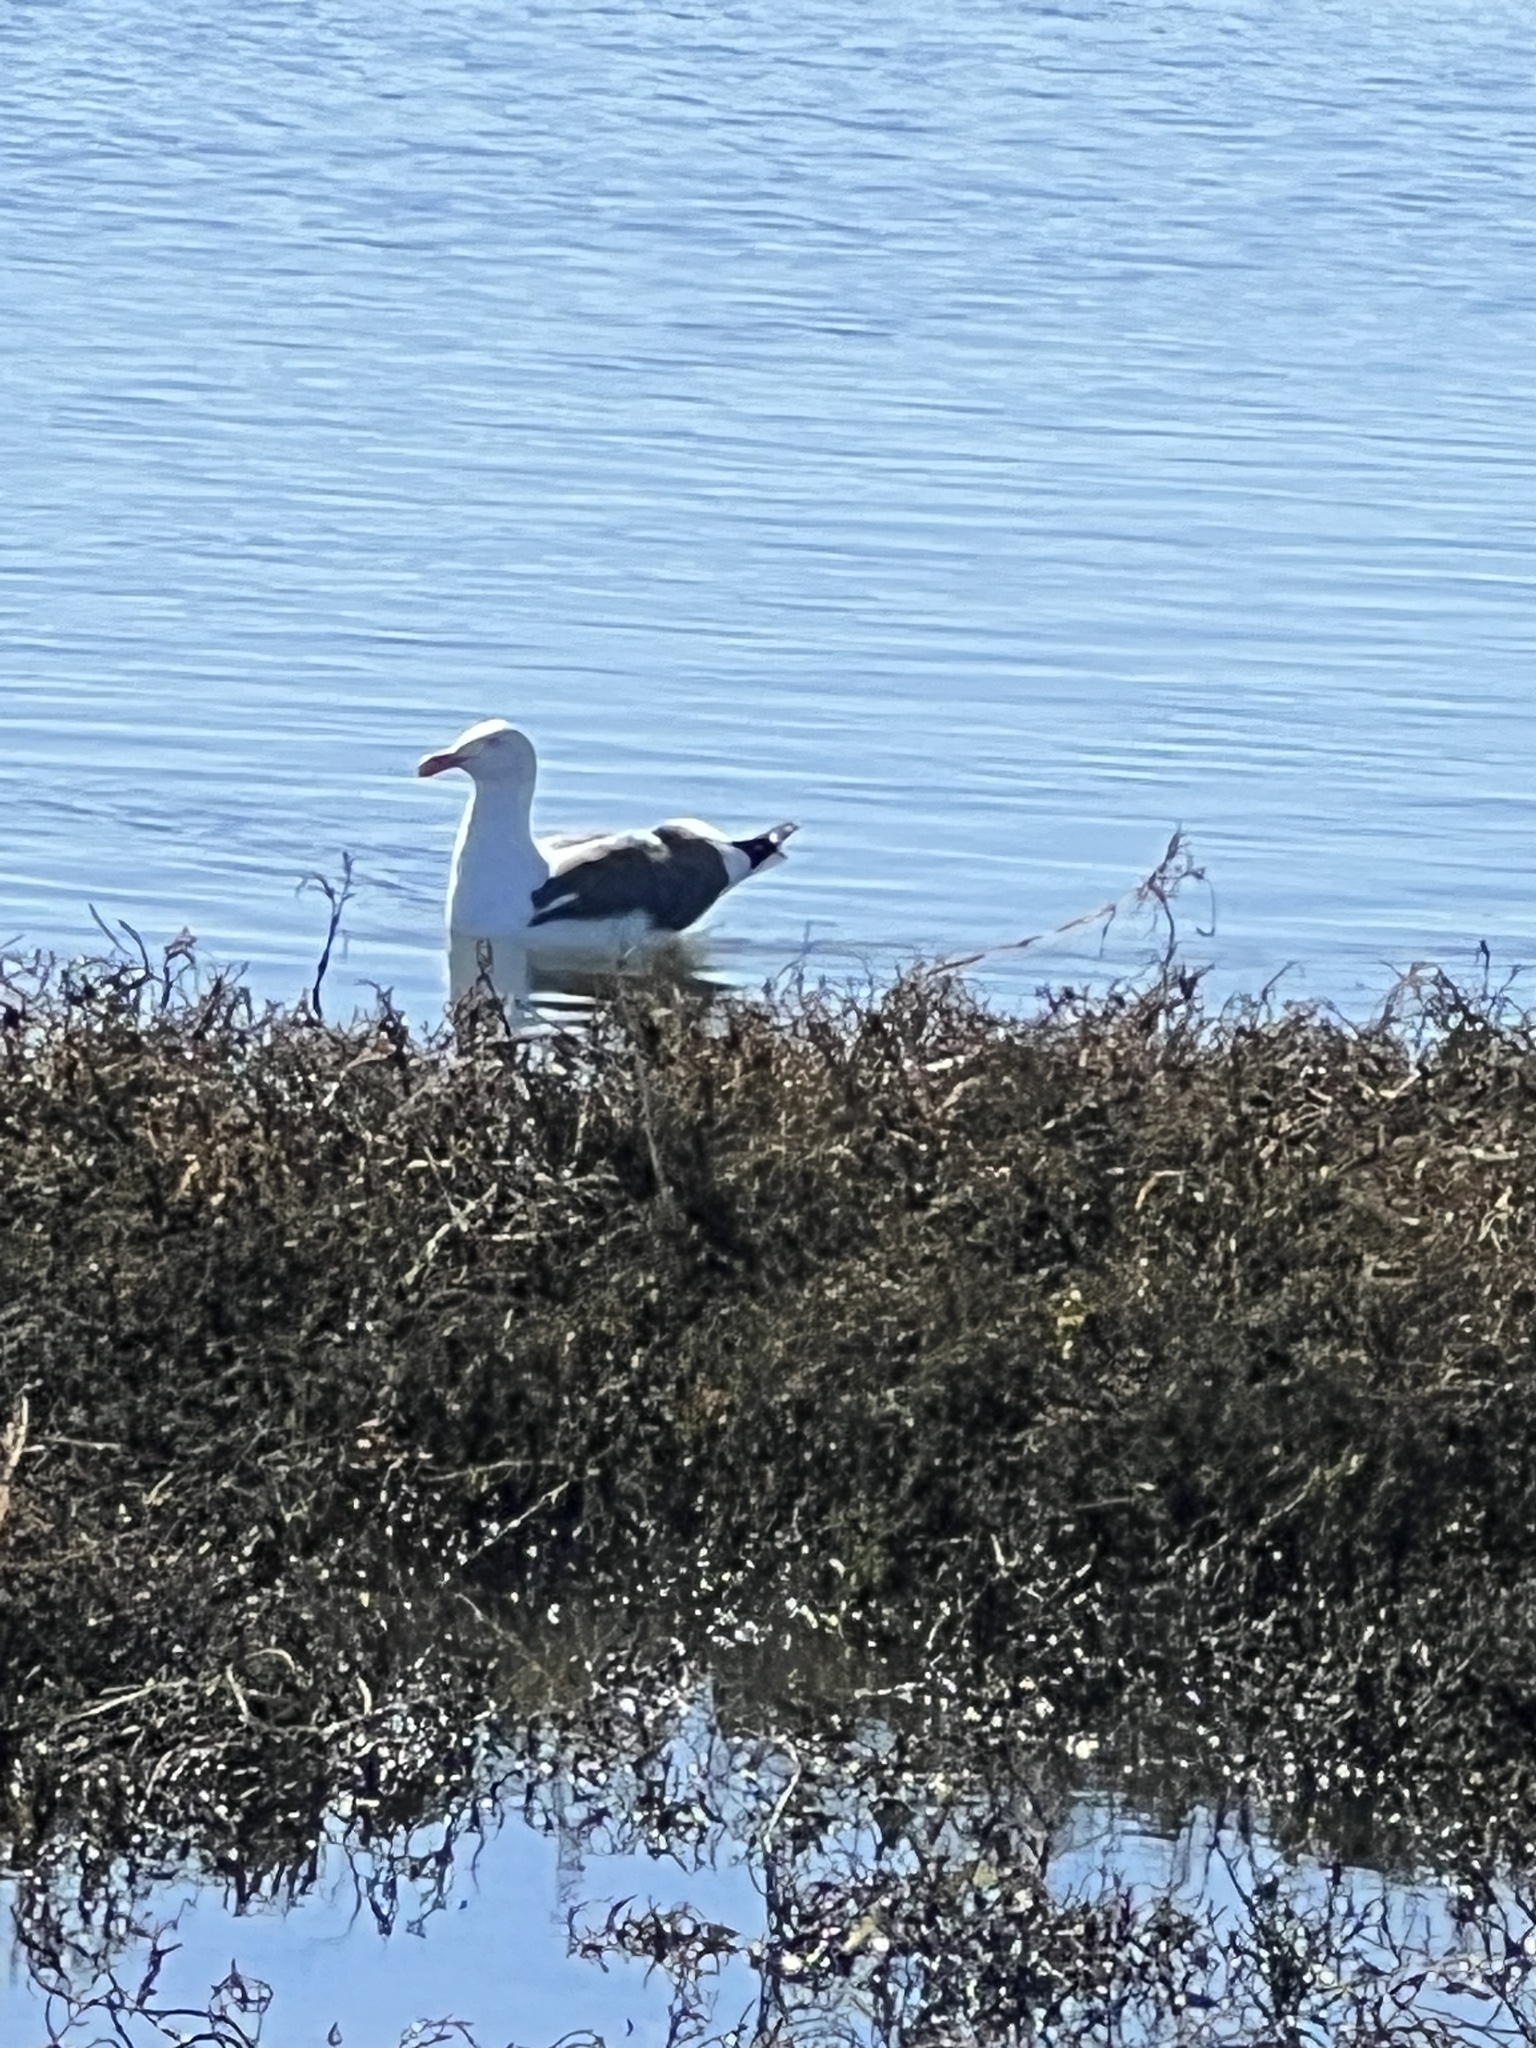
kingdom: Animalia
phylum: Chordata
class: Aves
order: Charadriiformes
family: Laridae
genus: Larus
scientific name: Larus occidentalis
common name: Western gull
